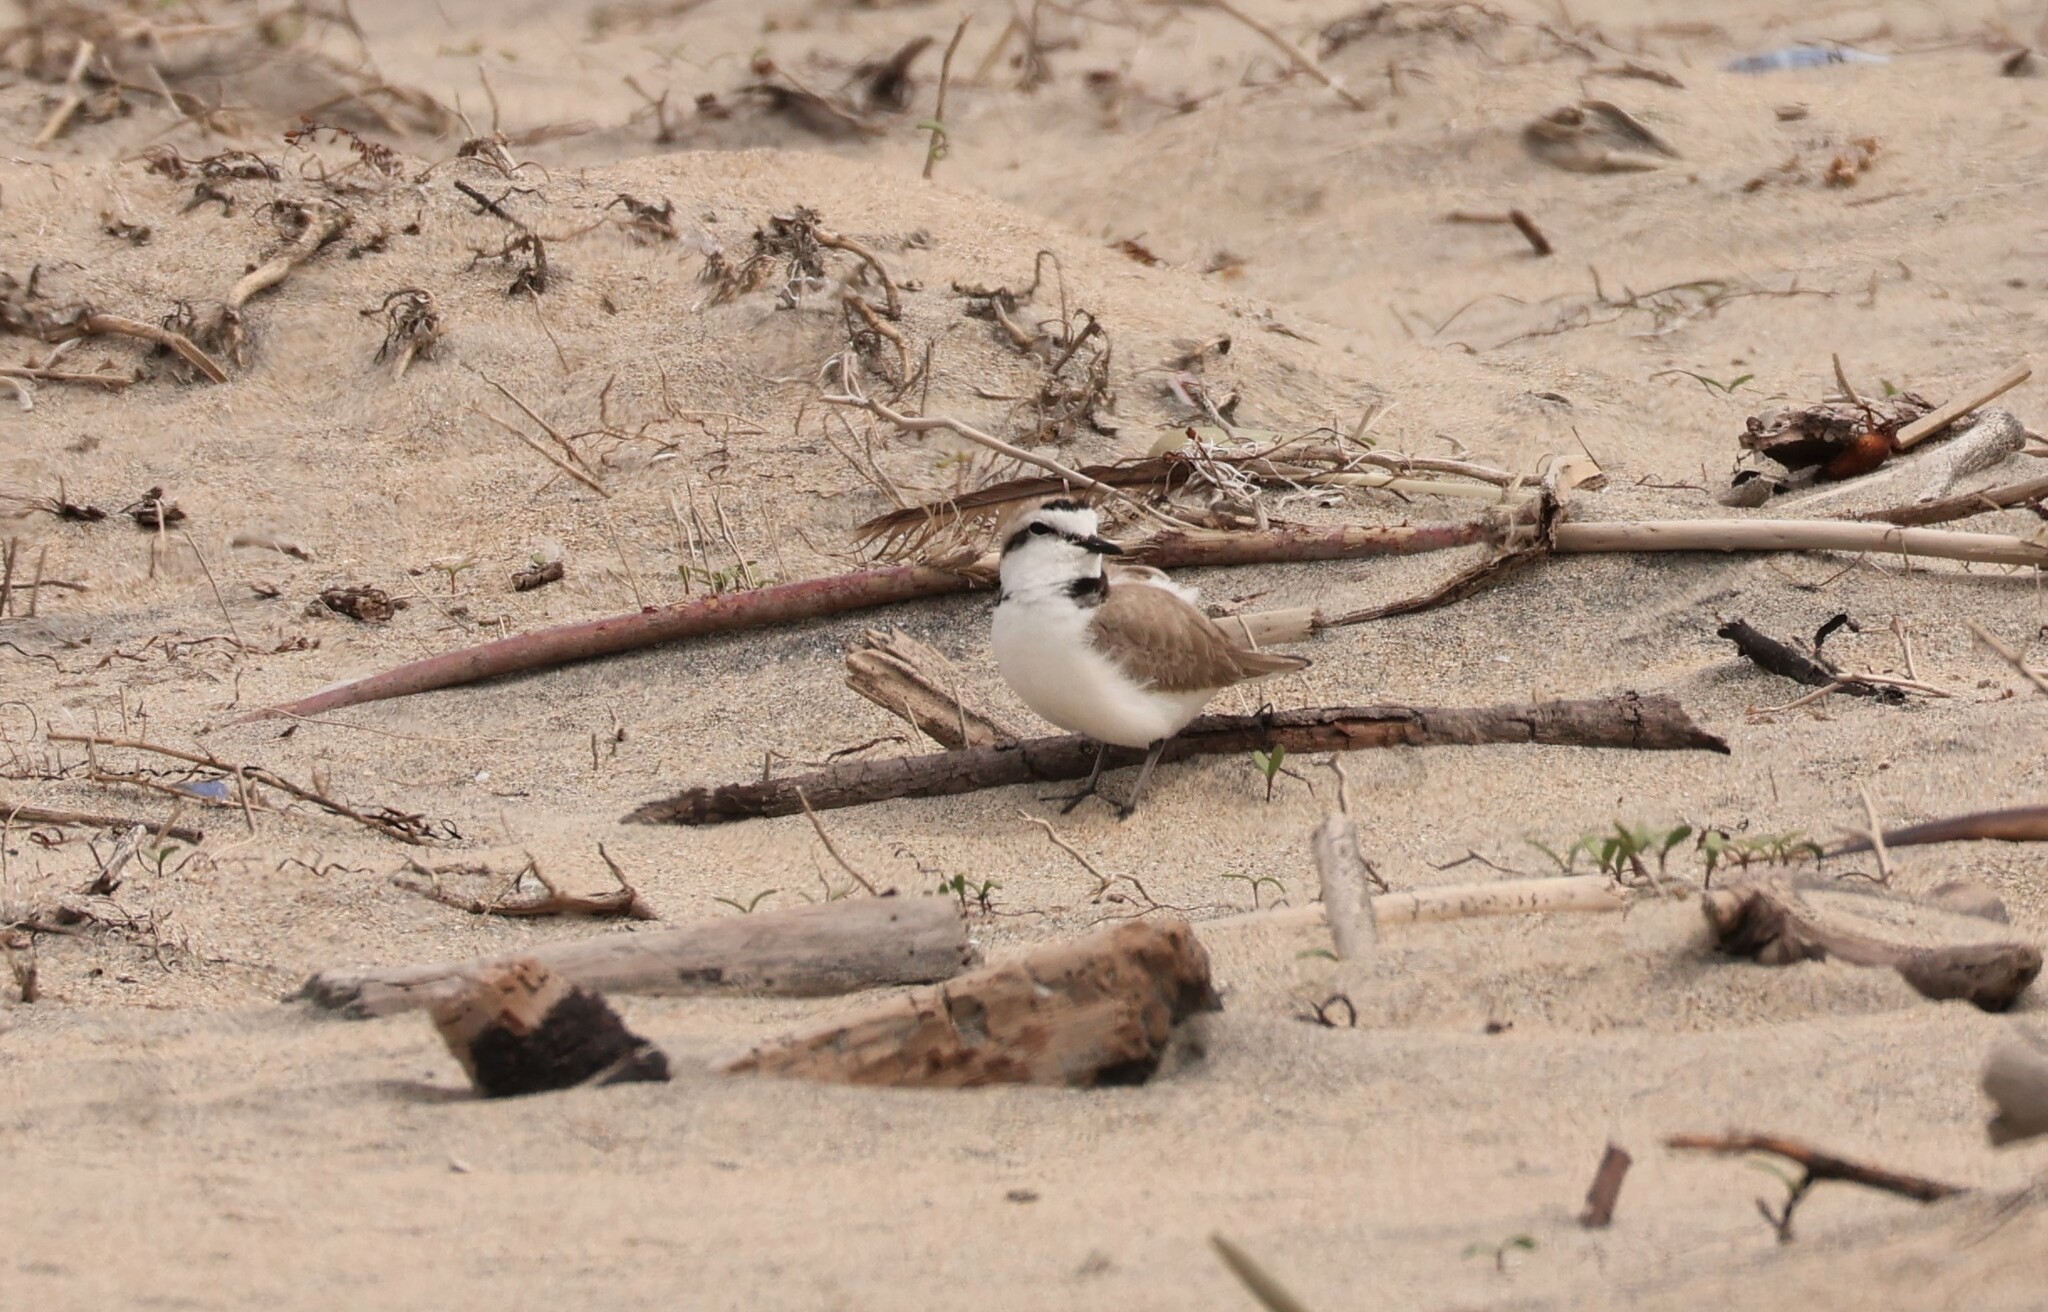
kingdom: Animalia
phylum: Chordata
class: Aves
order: Charadriiformes
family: Charadriidae
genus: Anarhynchus
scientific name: Anarhynchus
